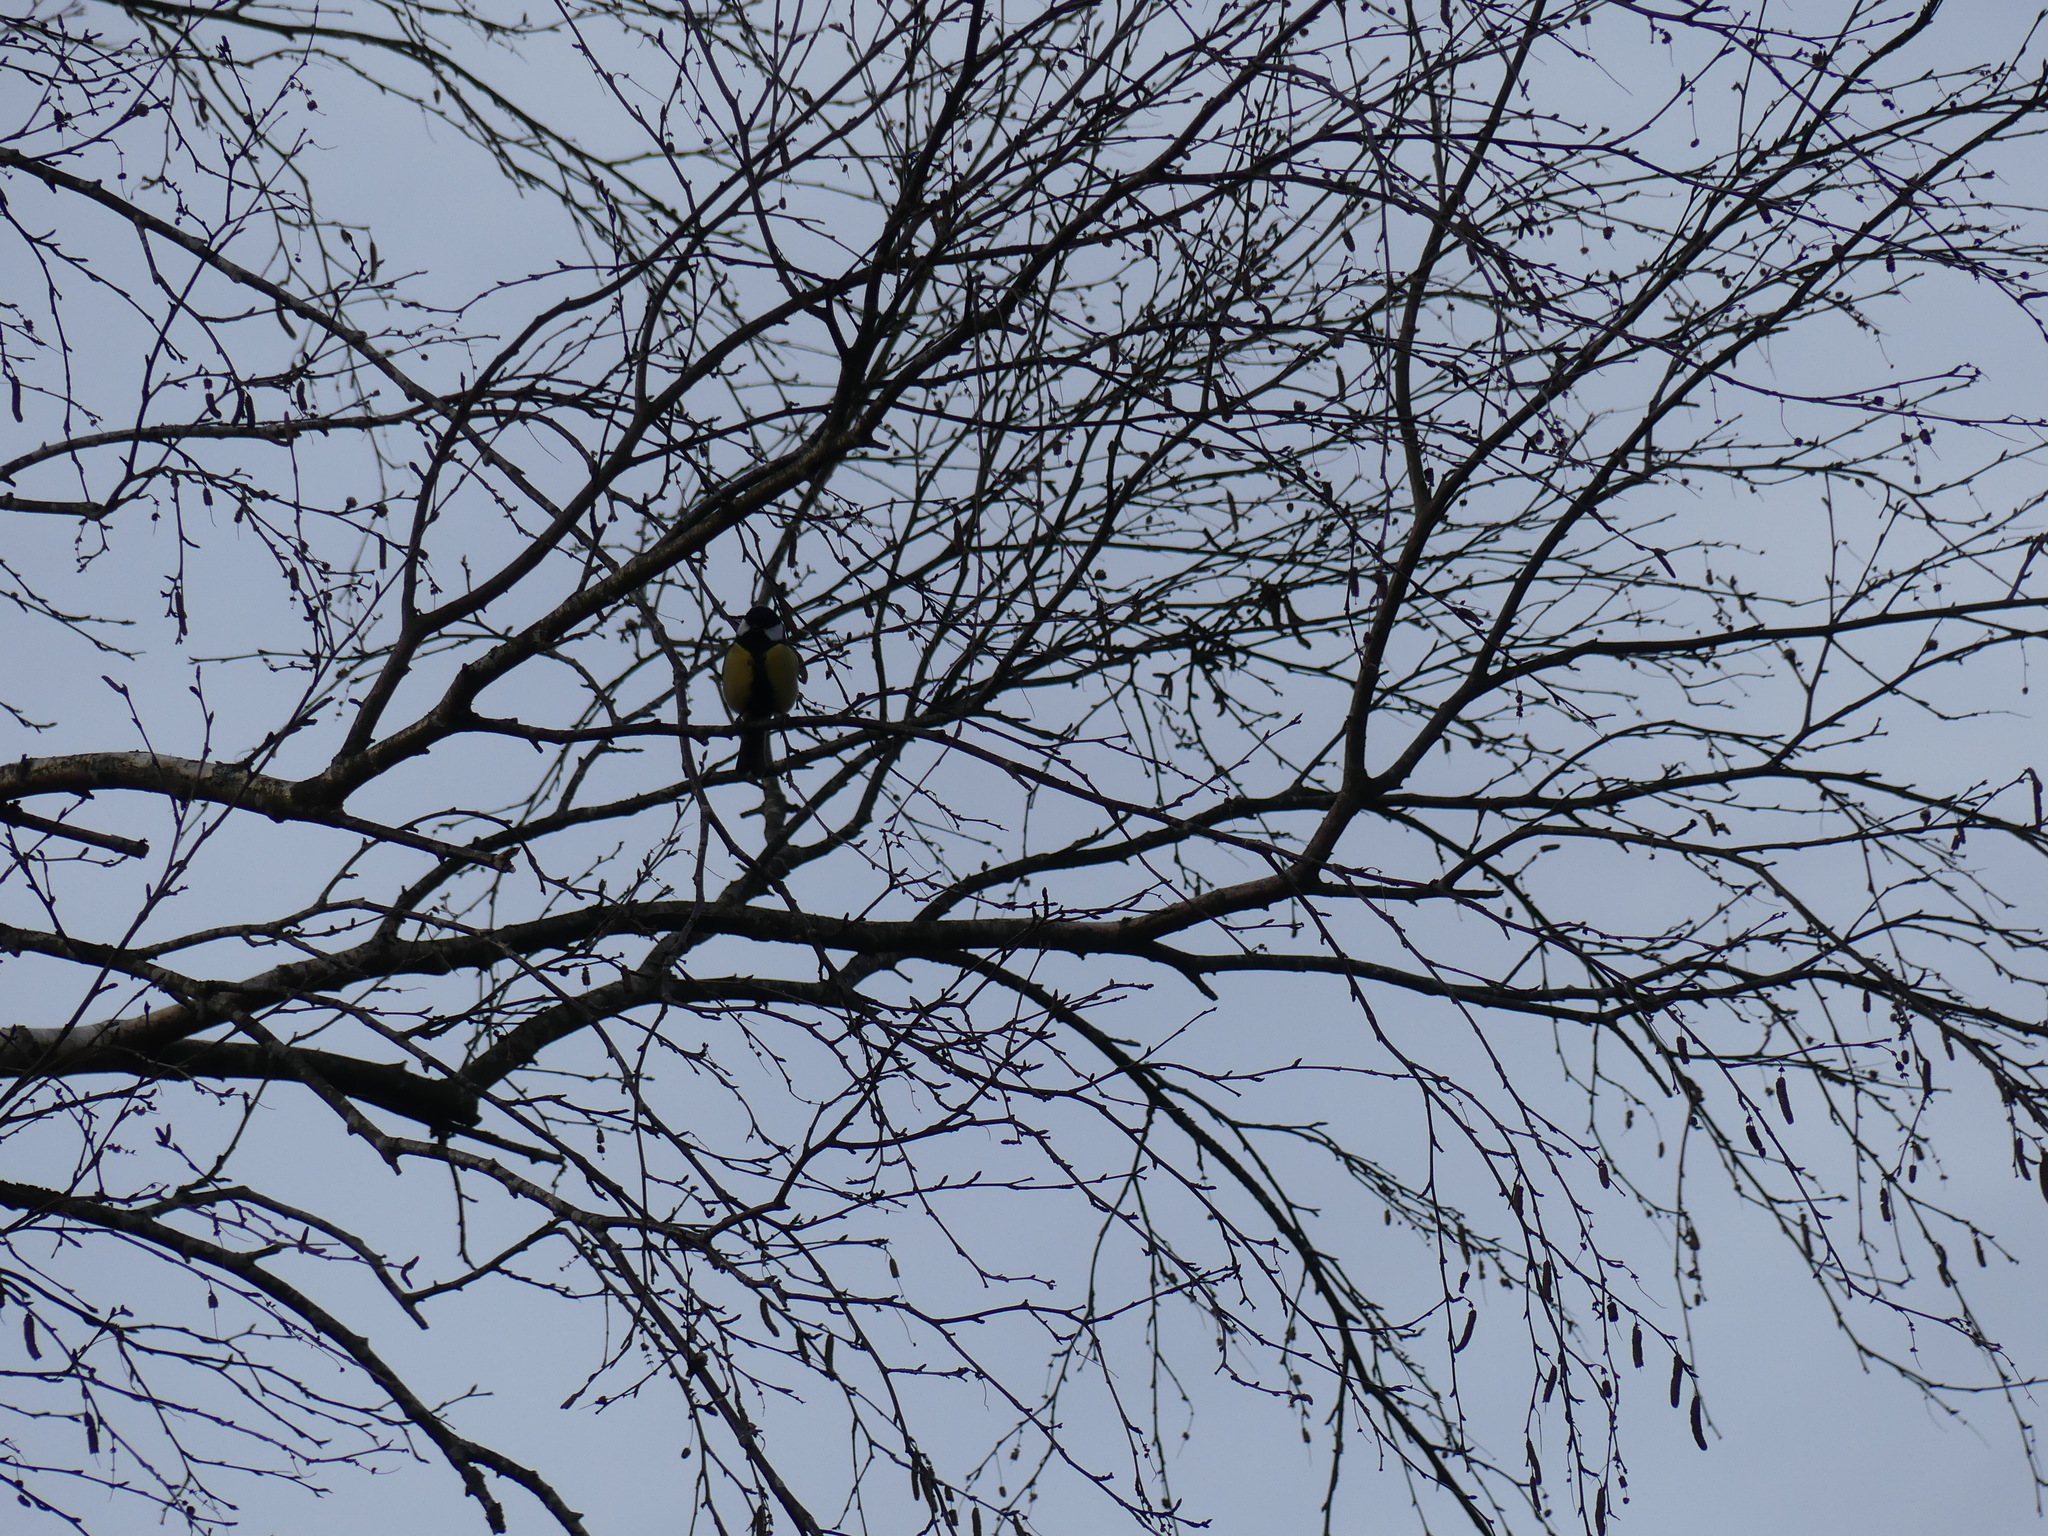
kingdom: Animalia
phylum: Chordata
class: Aves
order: Passeriformes
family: Paridae
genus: Parus
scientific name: Parus major
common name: Great tit
